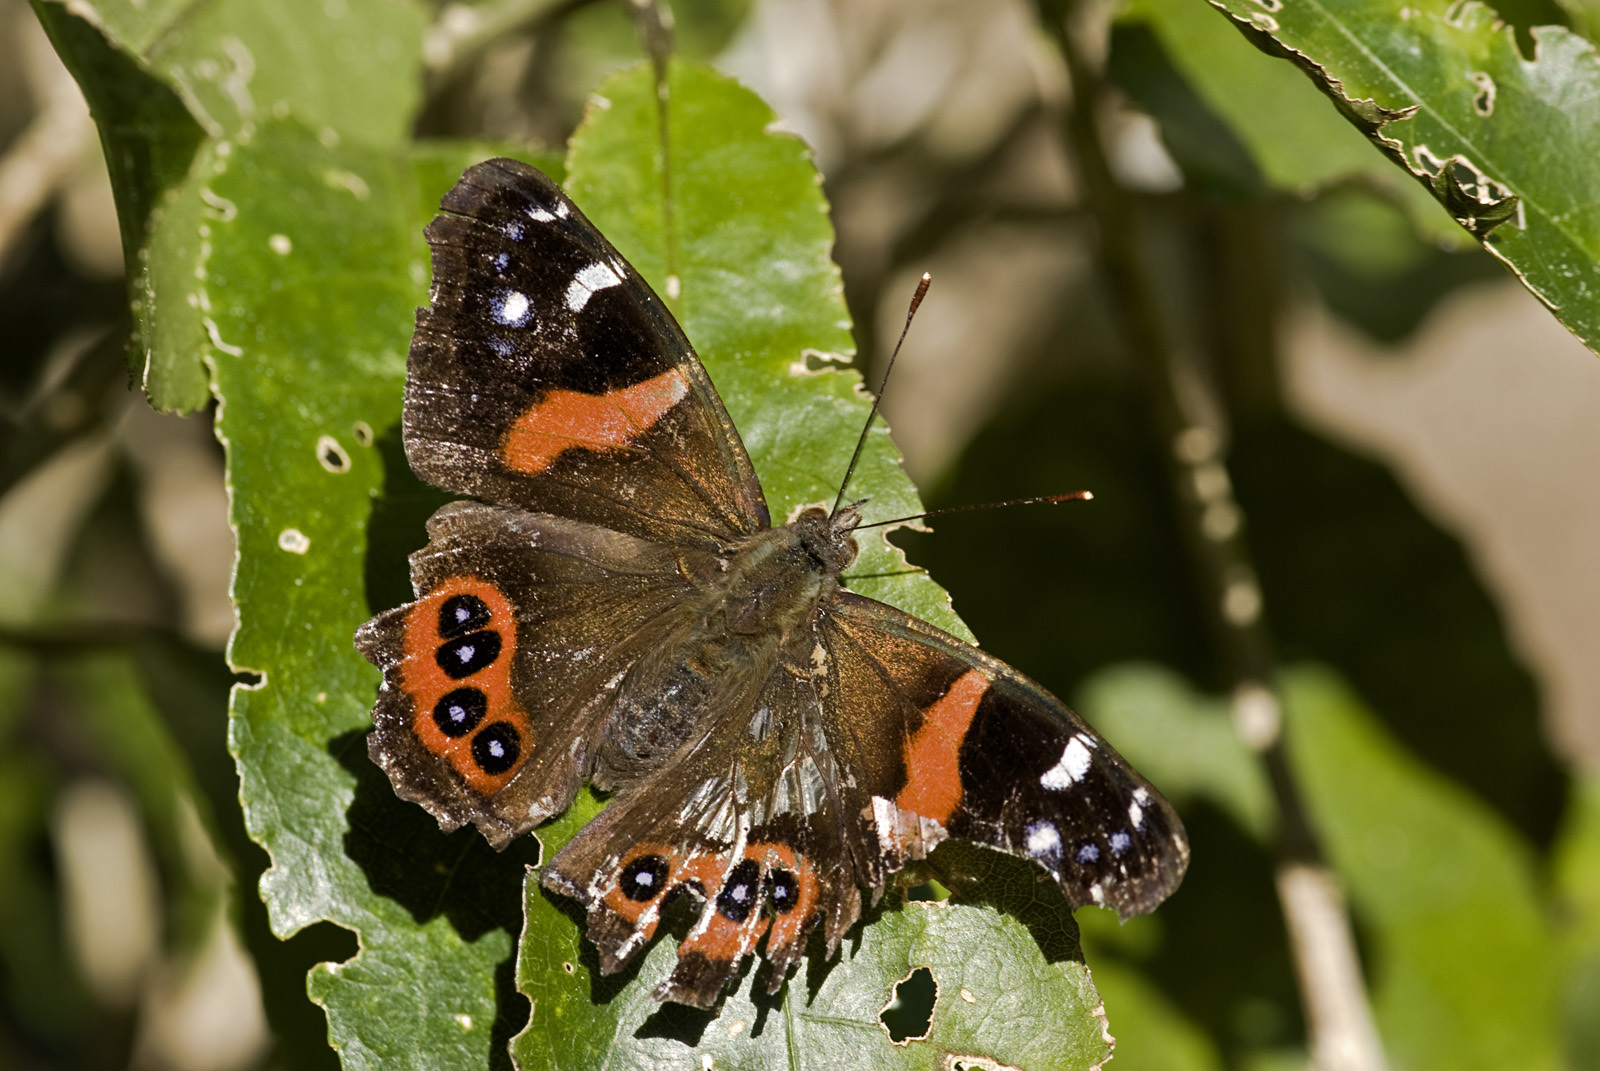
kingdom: Animalia
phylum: Arthropoda
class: Insecta
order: Lepidoptera
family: Nymphalidae
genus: Vanessa
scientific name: Vanessa gonerilla
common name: New zealand red admiral
